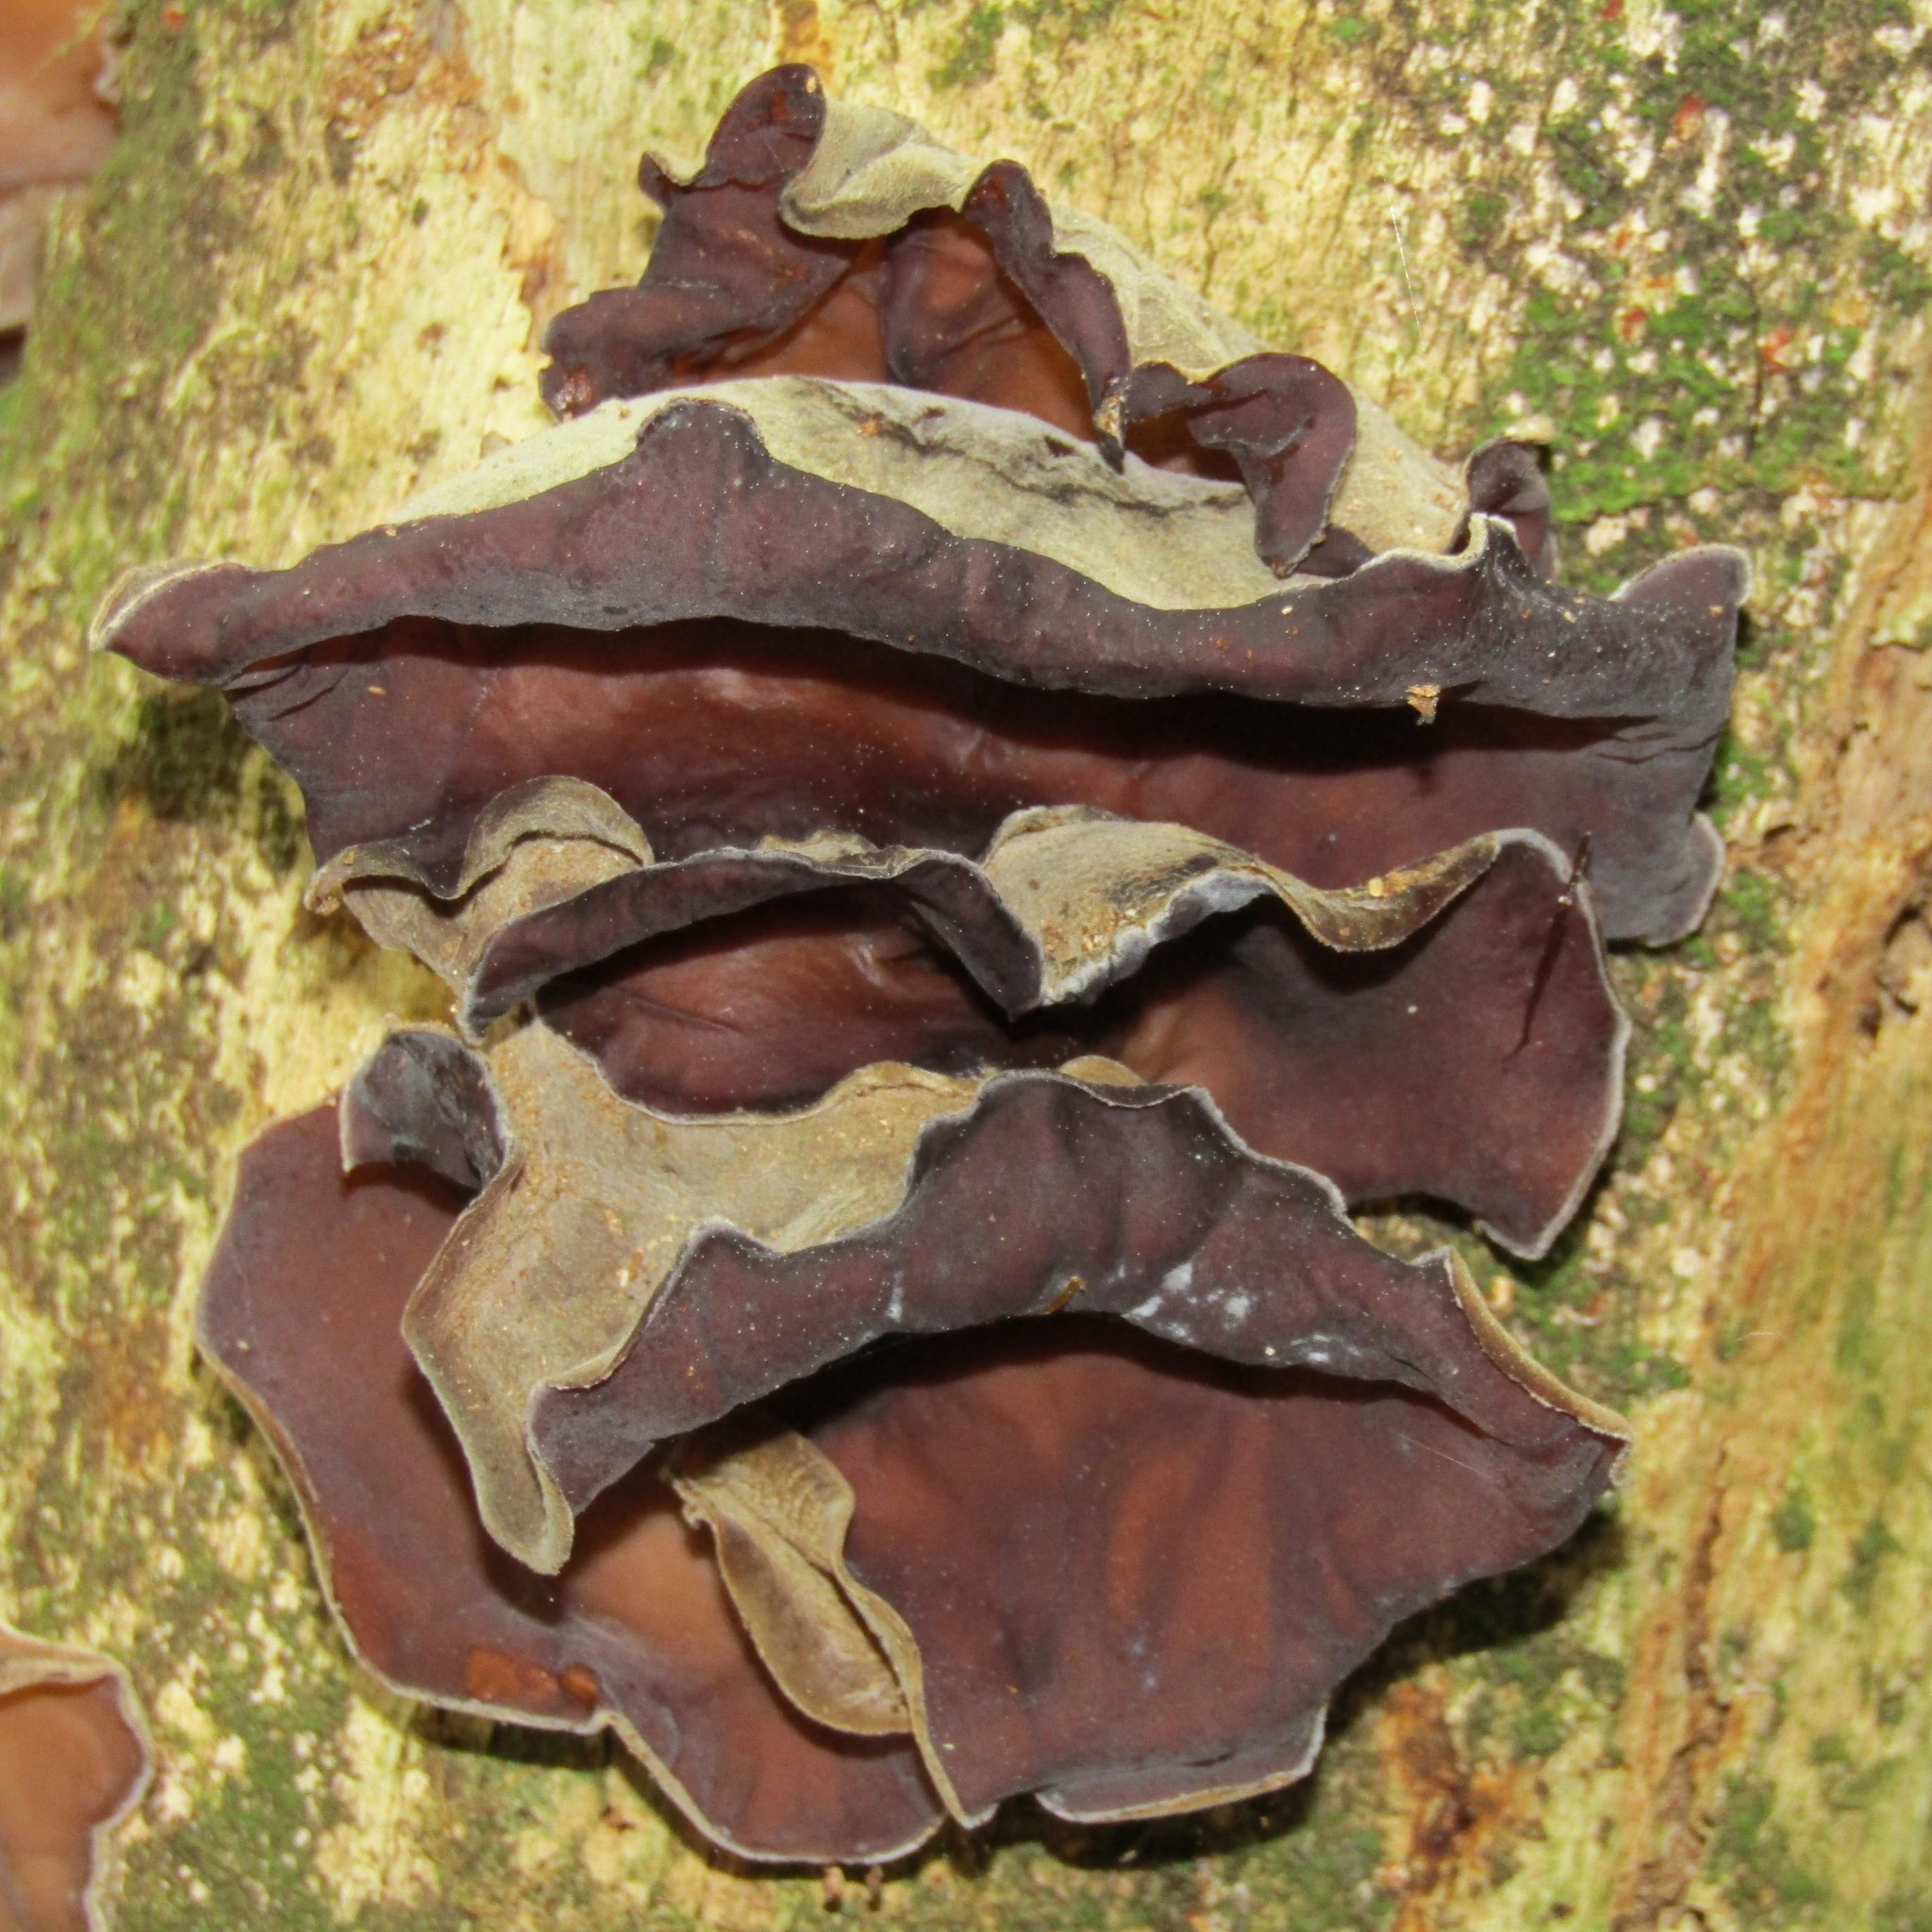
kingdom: Fungi
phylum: Basidiomycota
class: Agaricomycetes
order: Auriculariales
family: Auriculariaceae
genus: Auricularia
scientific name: Auricularia cornea
